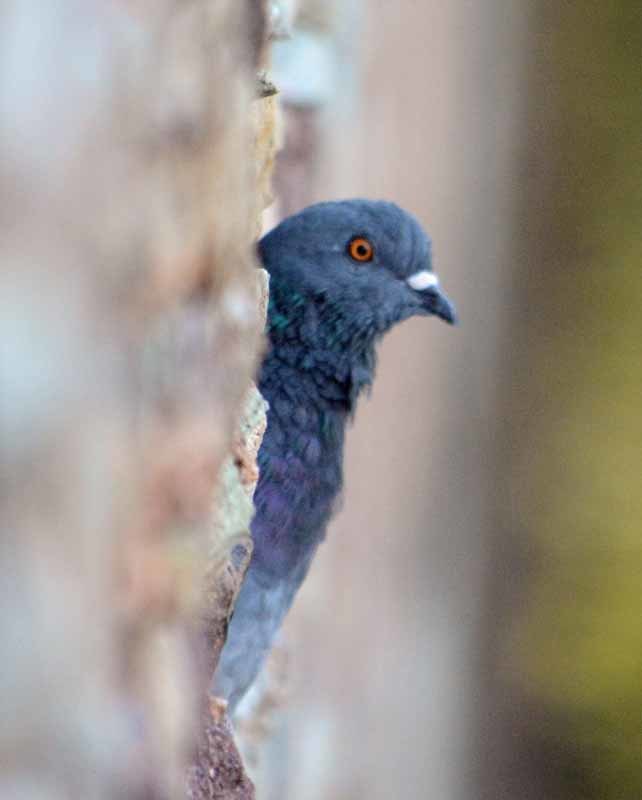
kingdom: Animalia
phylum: Chordata
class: Aves
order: Columbiformes
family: Columbidae
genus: Columba
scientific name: Columba livia
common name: Rock pigeon
